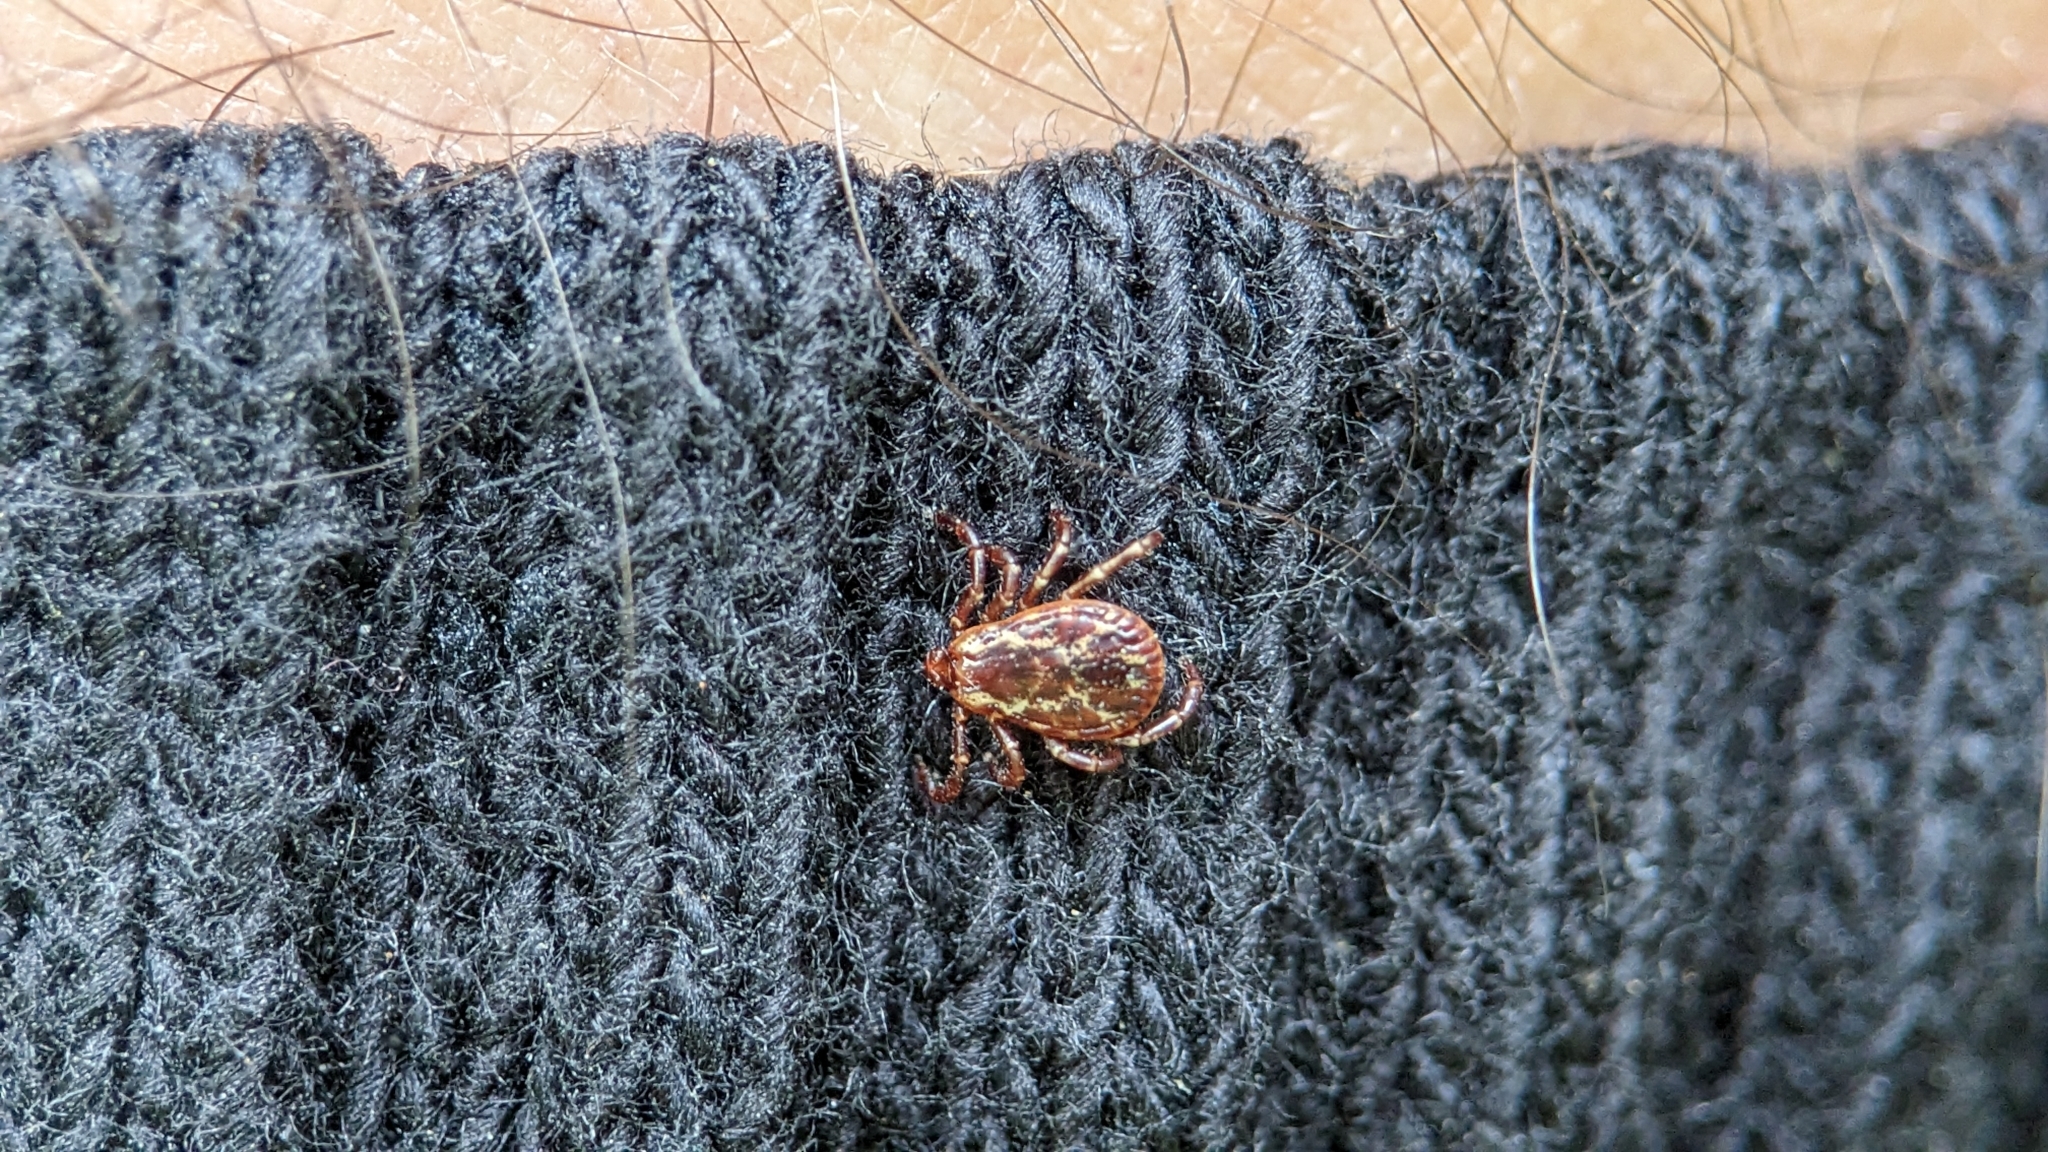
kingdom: Animalia
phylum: Arthropoda
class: Arachnida
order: Ixodida
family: Ixodidae
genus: Dermacentor
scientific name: Dermacentor variabilis
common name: American dog tick
